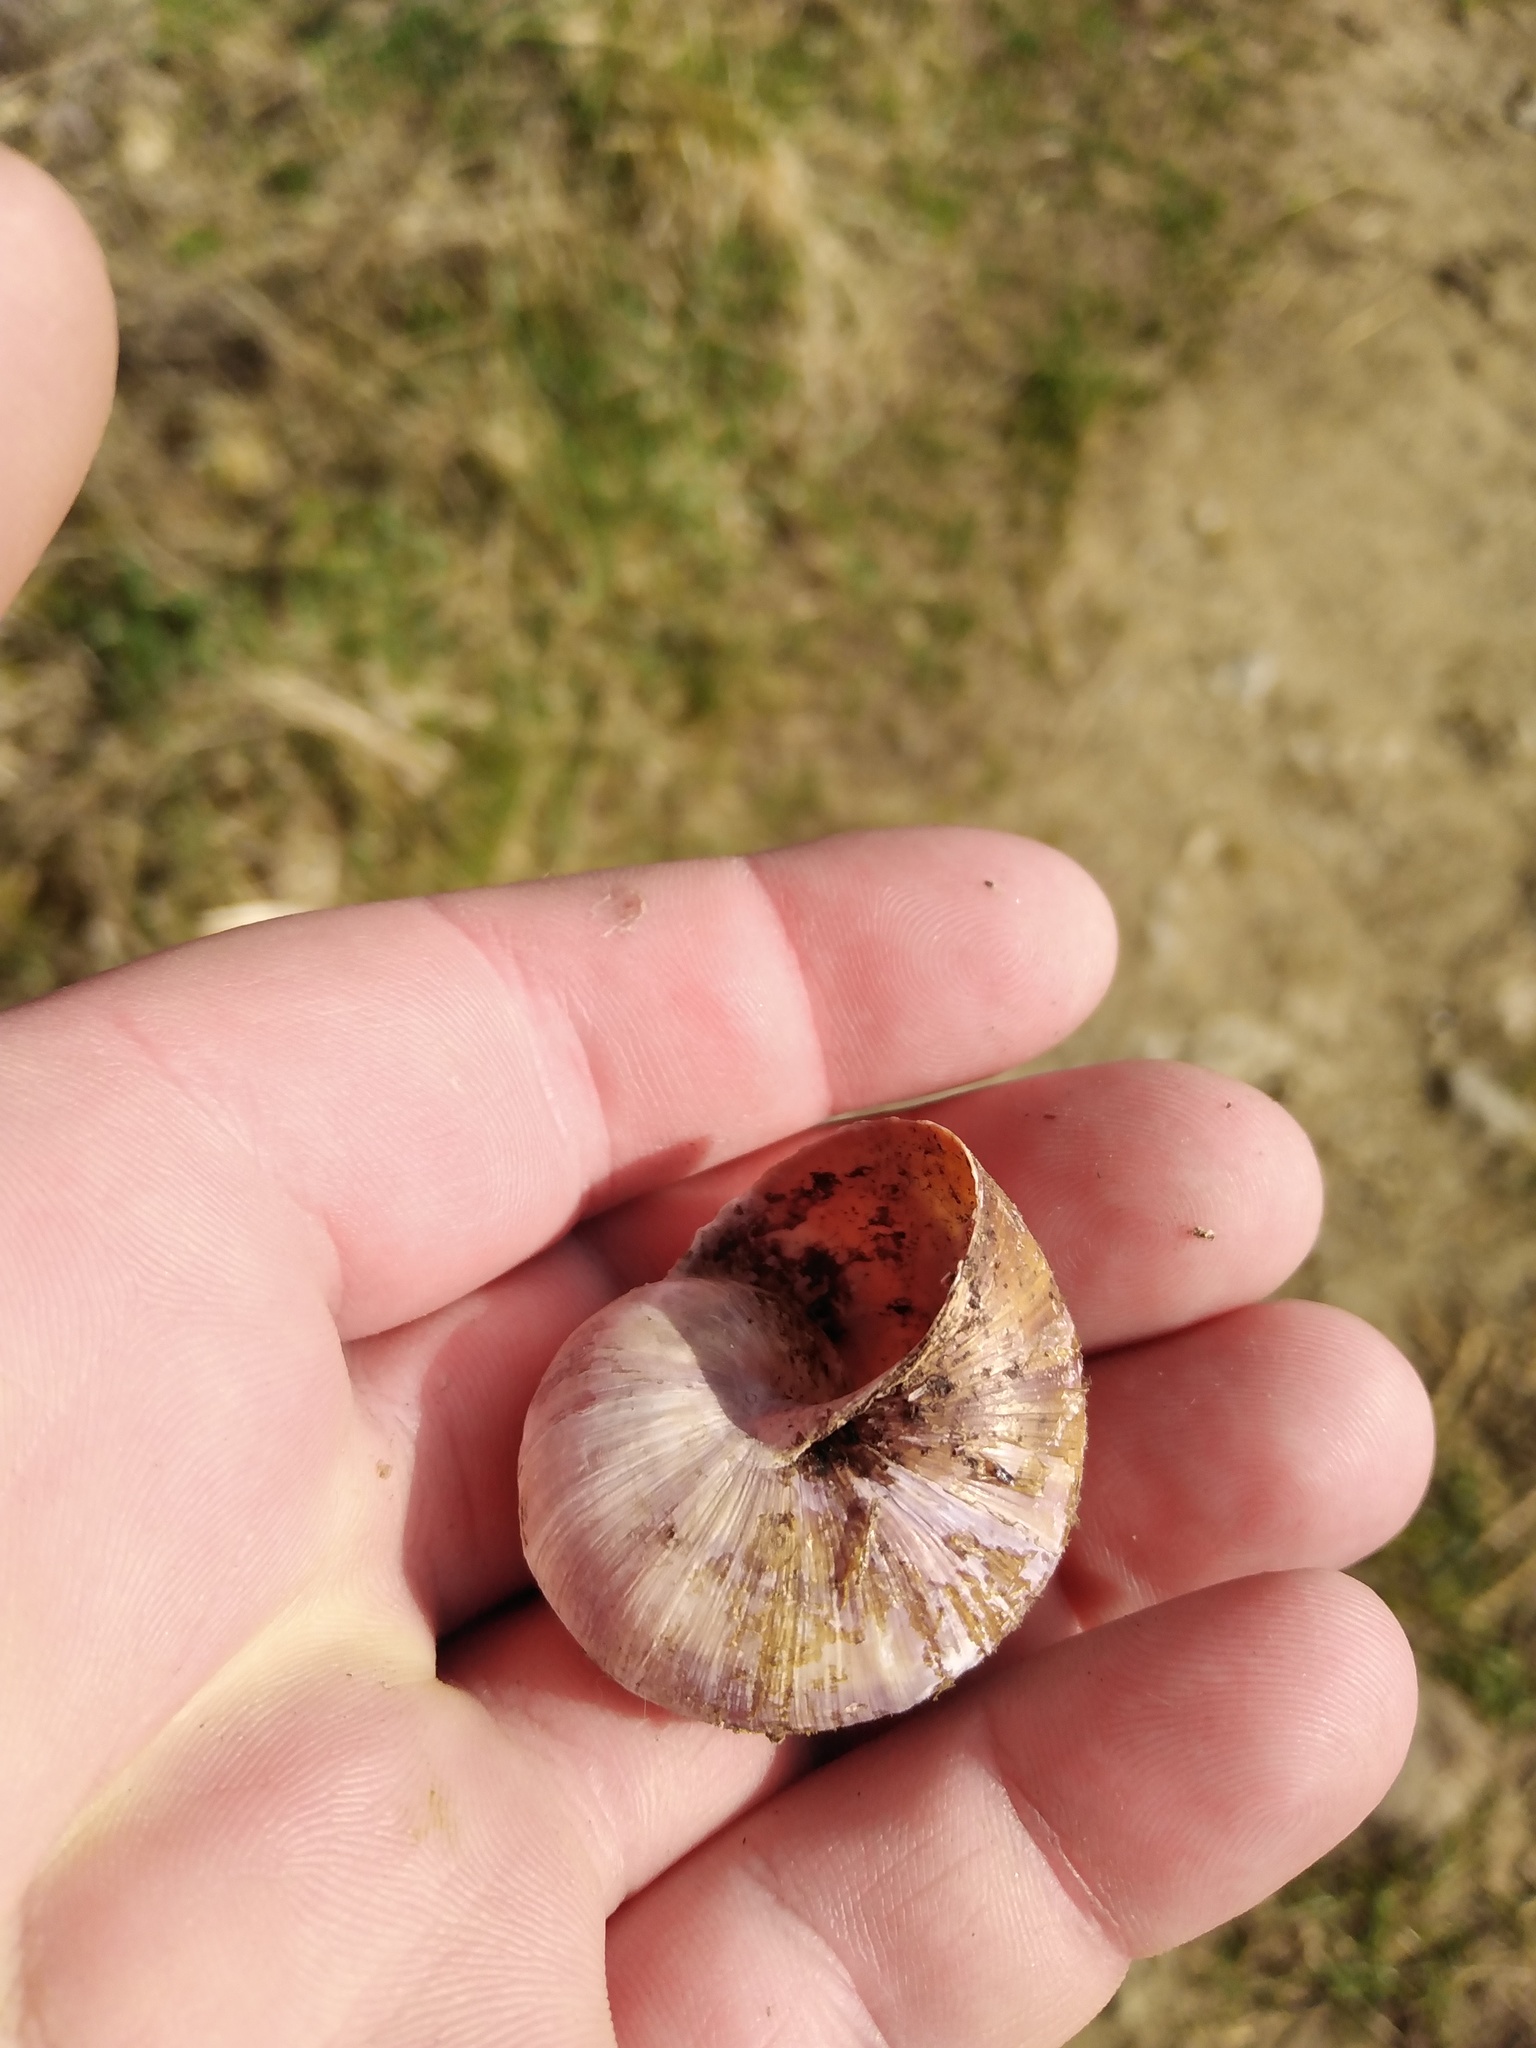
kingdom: Animalia
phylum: Mollusca
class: Gastropoda
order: Stylommatophora
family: Helicidae
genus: Helix
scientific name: Helix pomatia
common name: Roman snail
